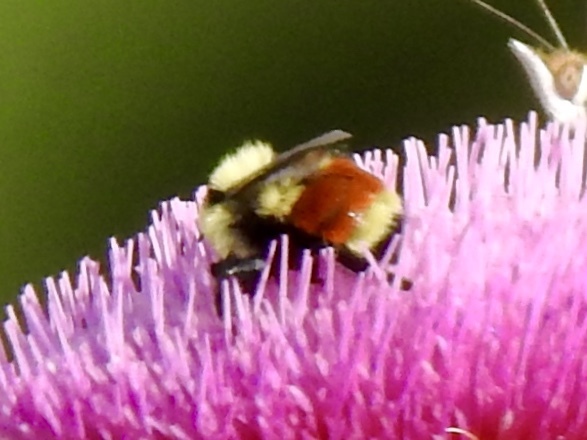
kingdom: Animalia
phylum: Arthropoda
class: Insecta
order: Hymenoptera
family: Apidae
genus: Bombus
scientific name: Bombus huntii
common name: Hunt bumble bee
